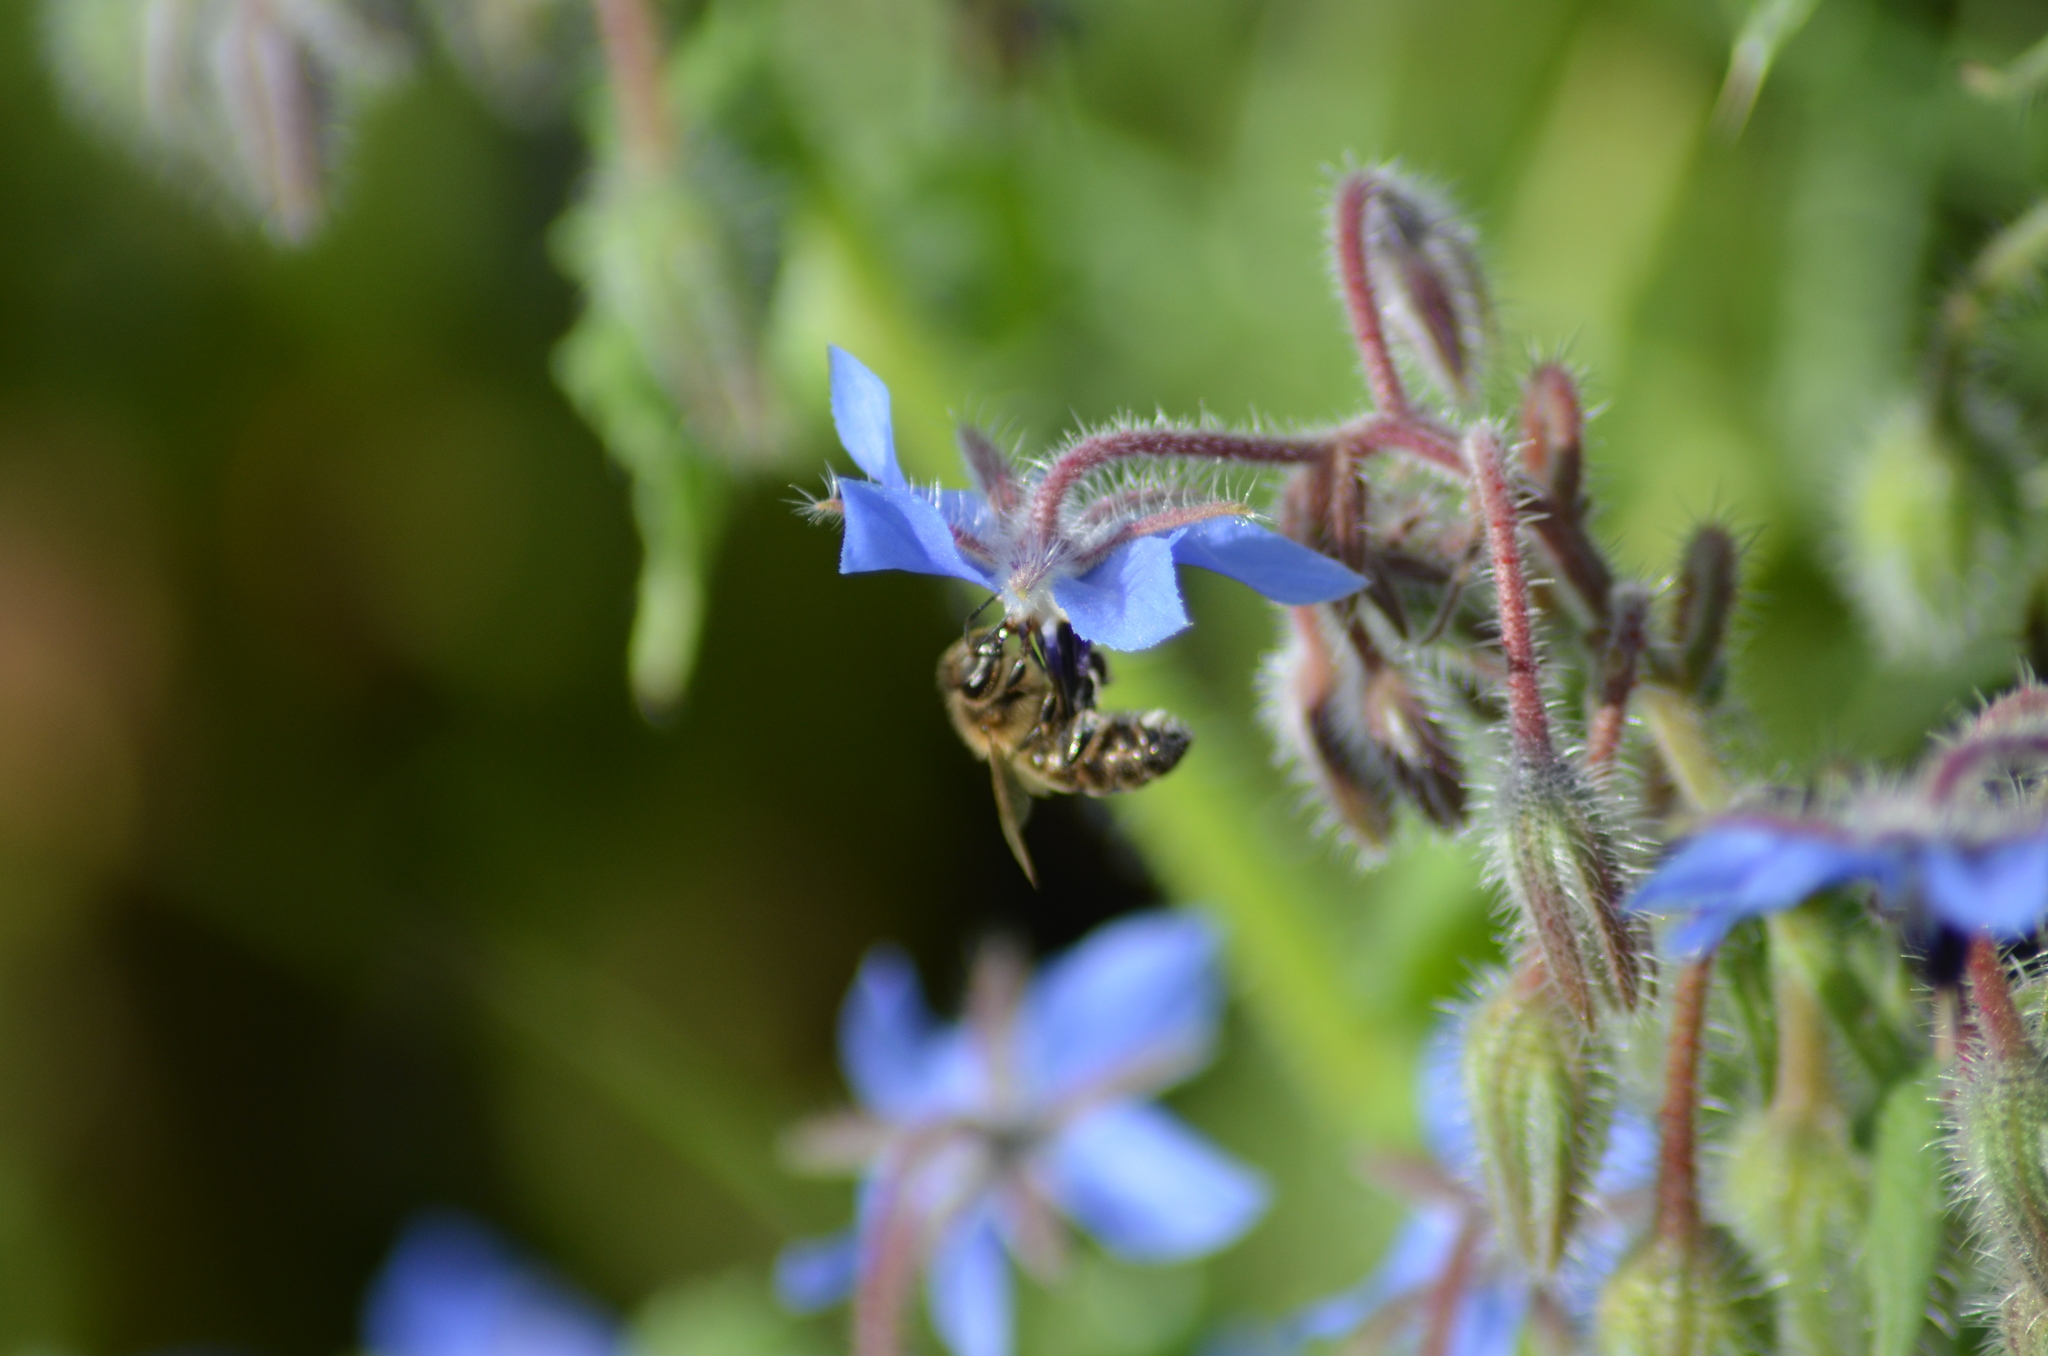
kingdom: Animalia
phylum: Arthropoda
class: Insecta
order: Hymenoptera
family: Apidae
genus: Apis
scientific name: Apis mellifera
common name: Honey bee
